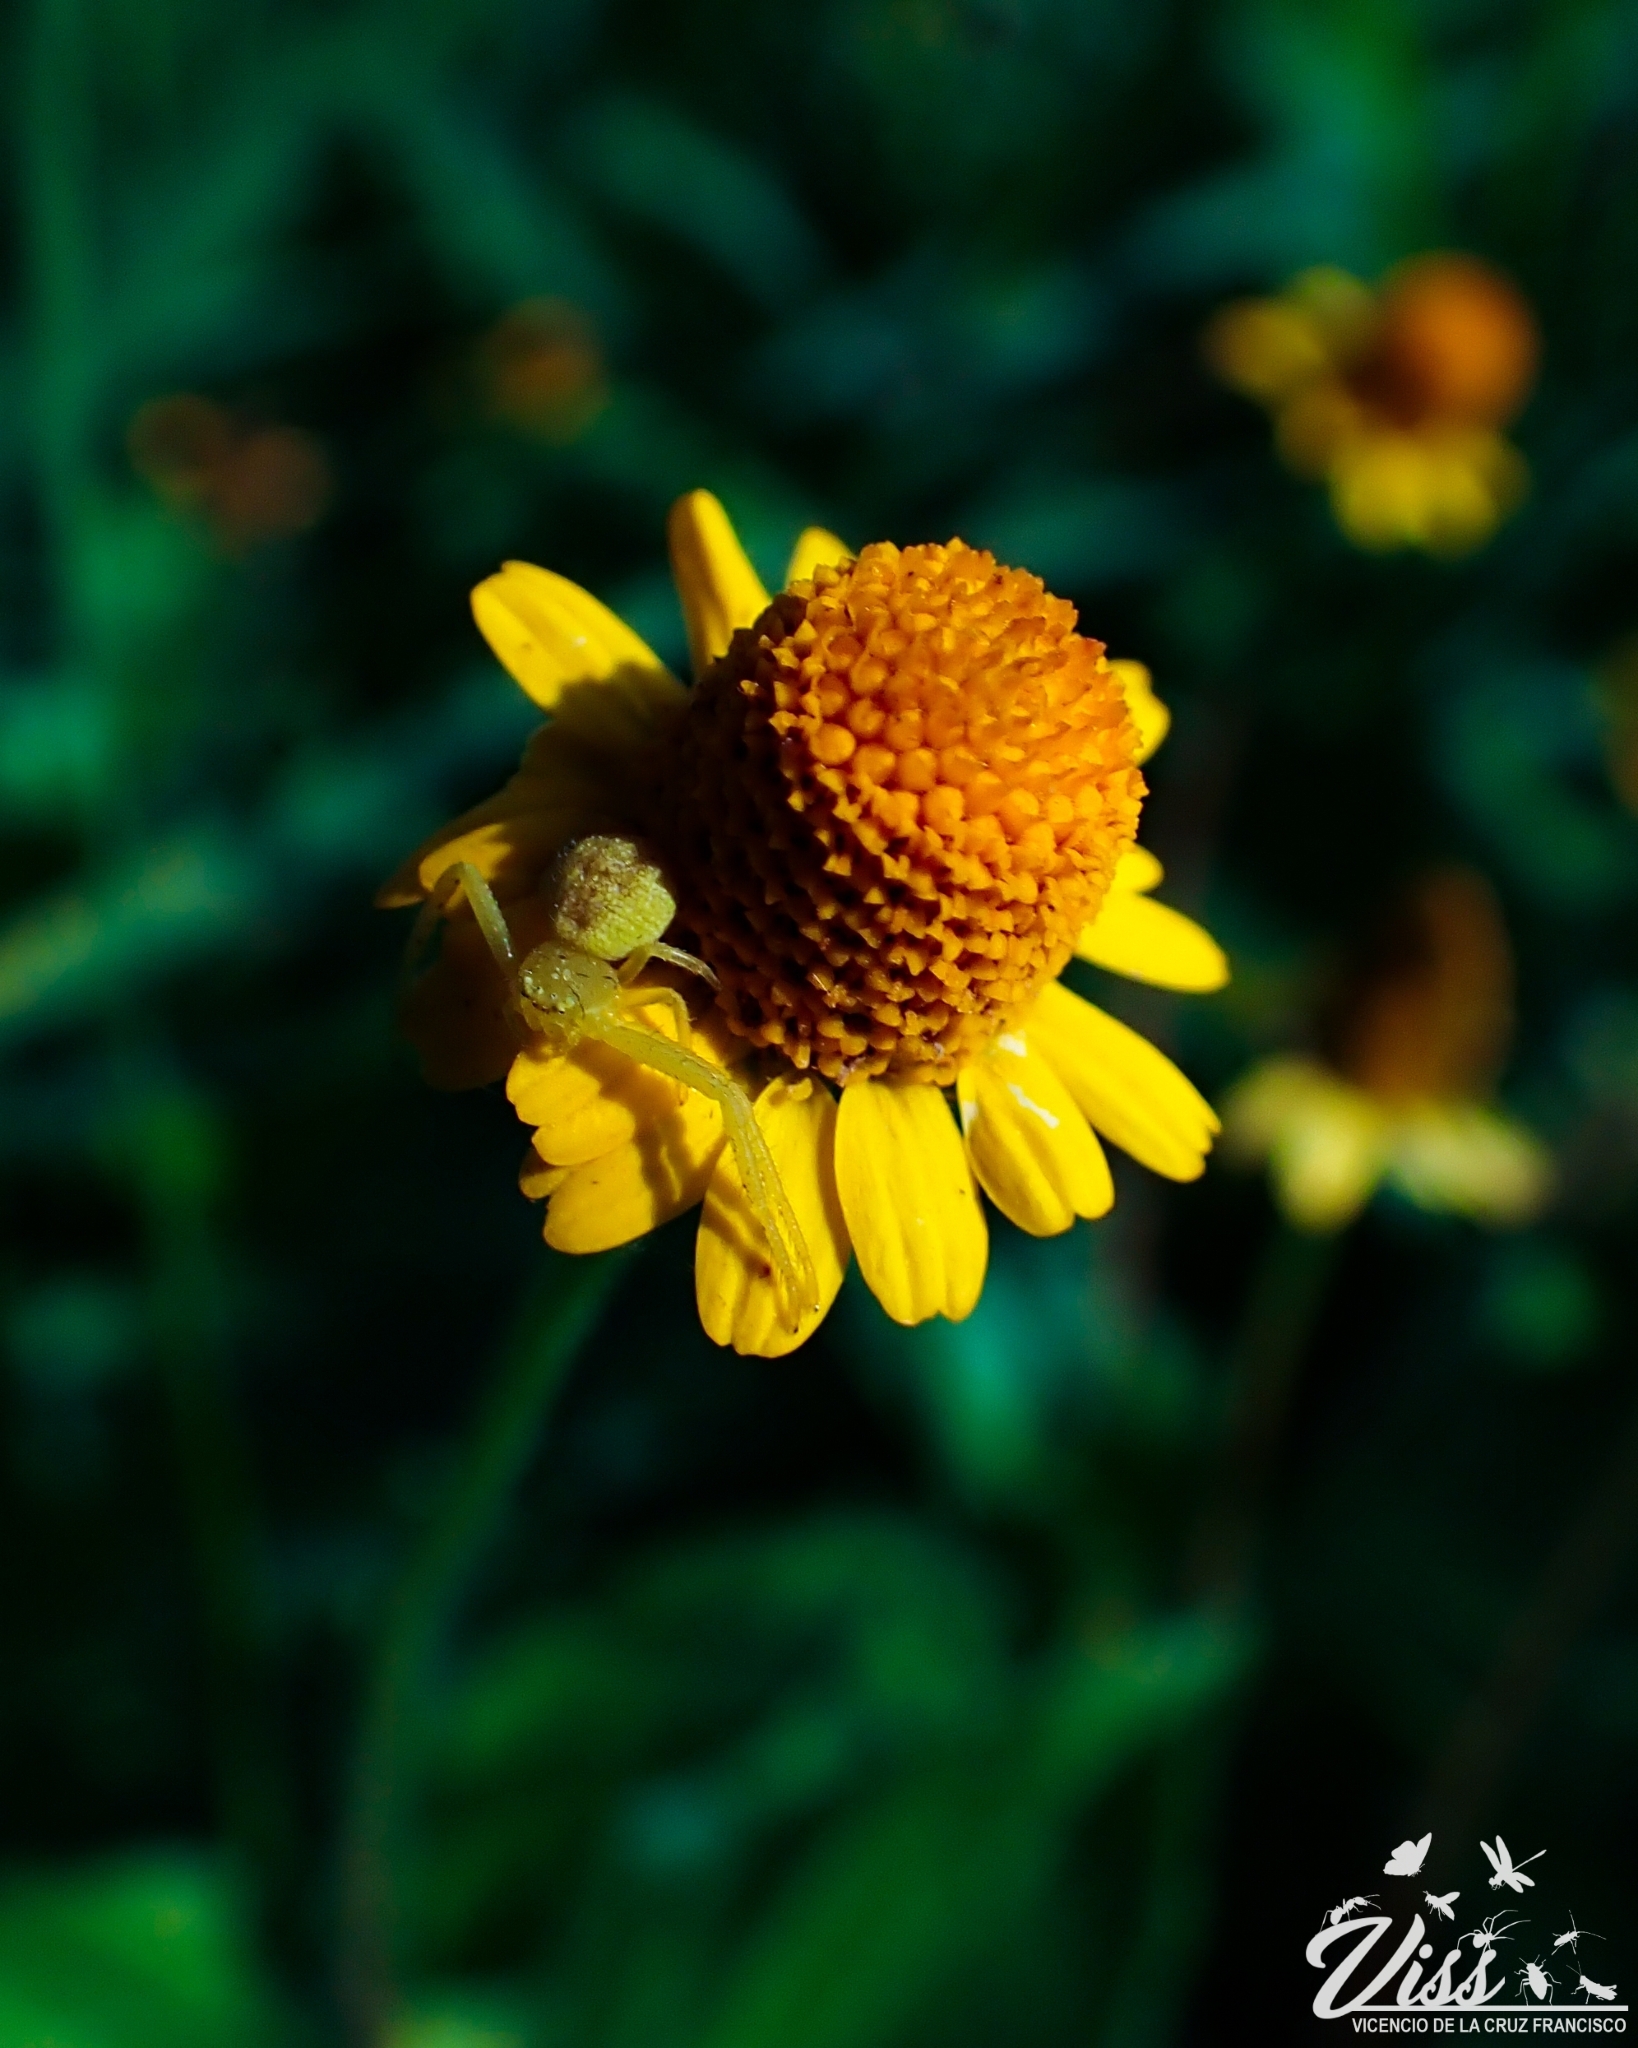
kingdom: Plantae
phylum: Tracheophyta
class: Magnoliopsida
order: Asterales
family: Asteraceae
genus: Acmella
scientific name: Acmella repens
